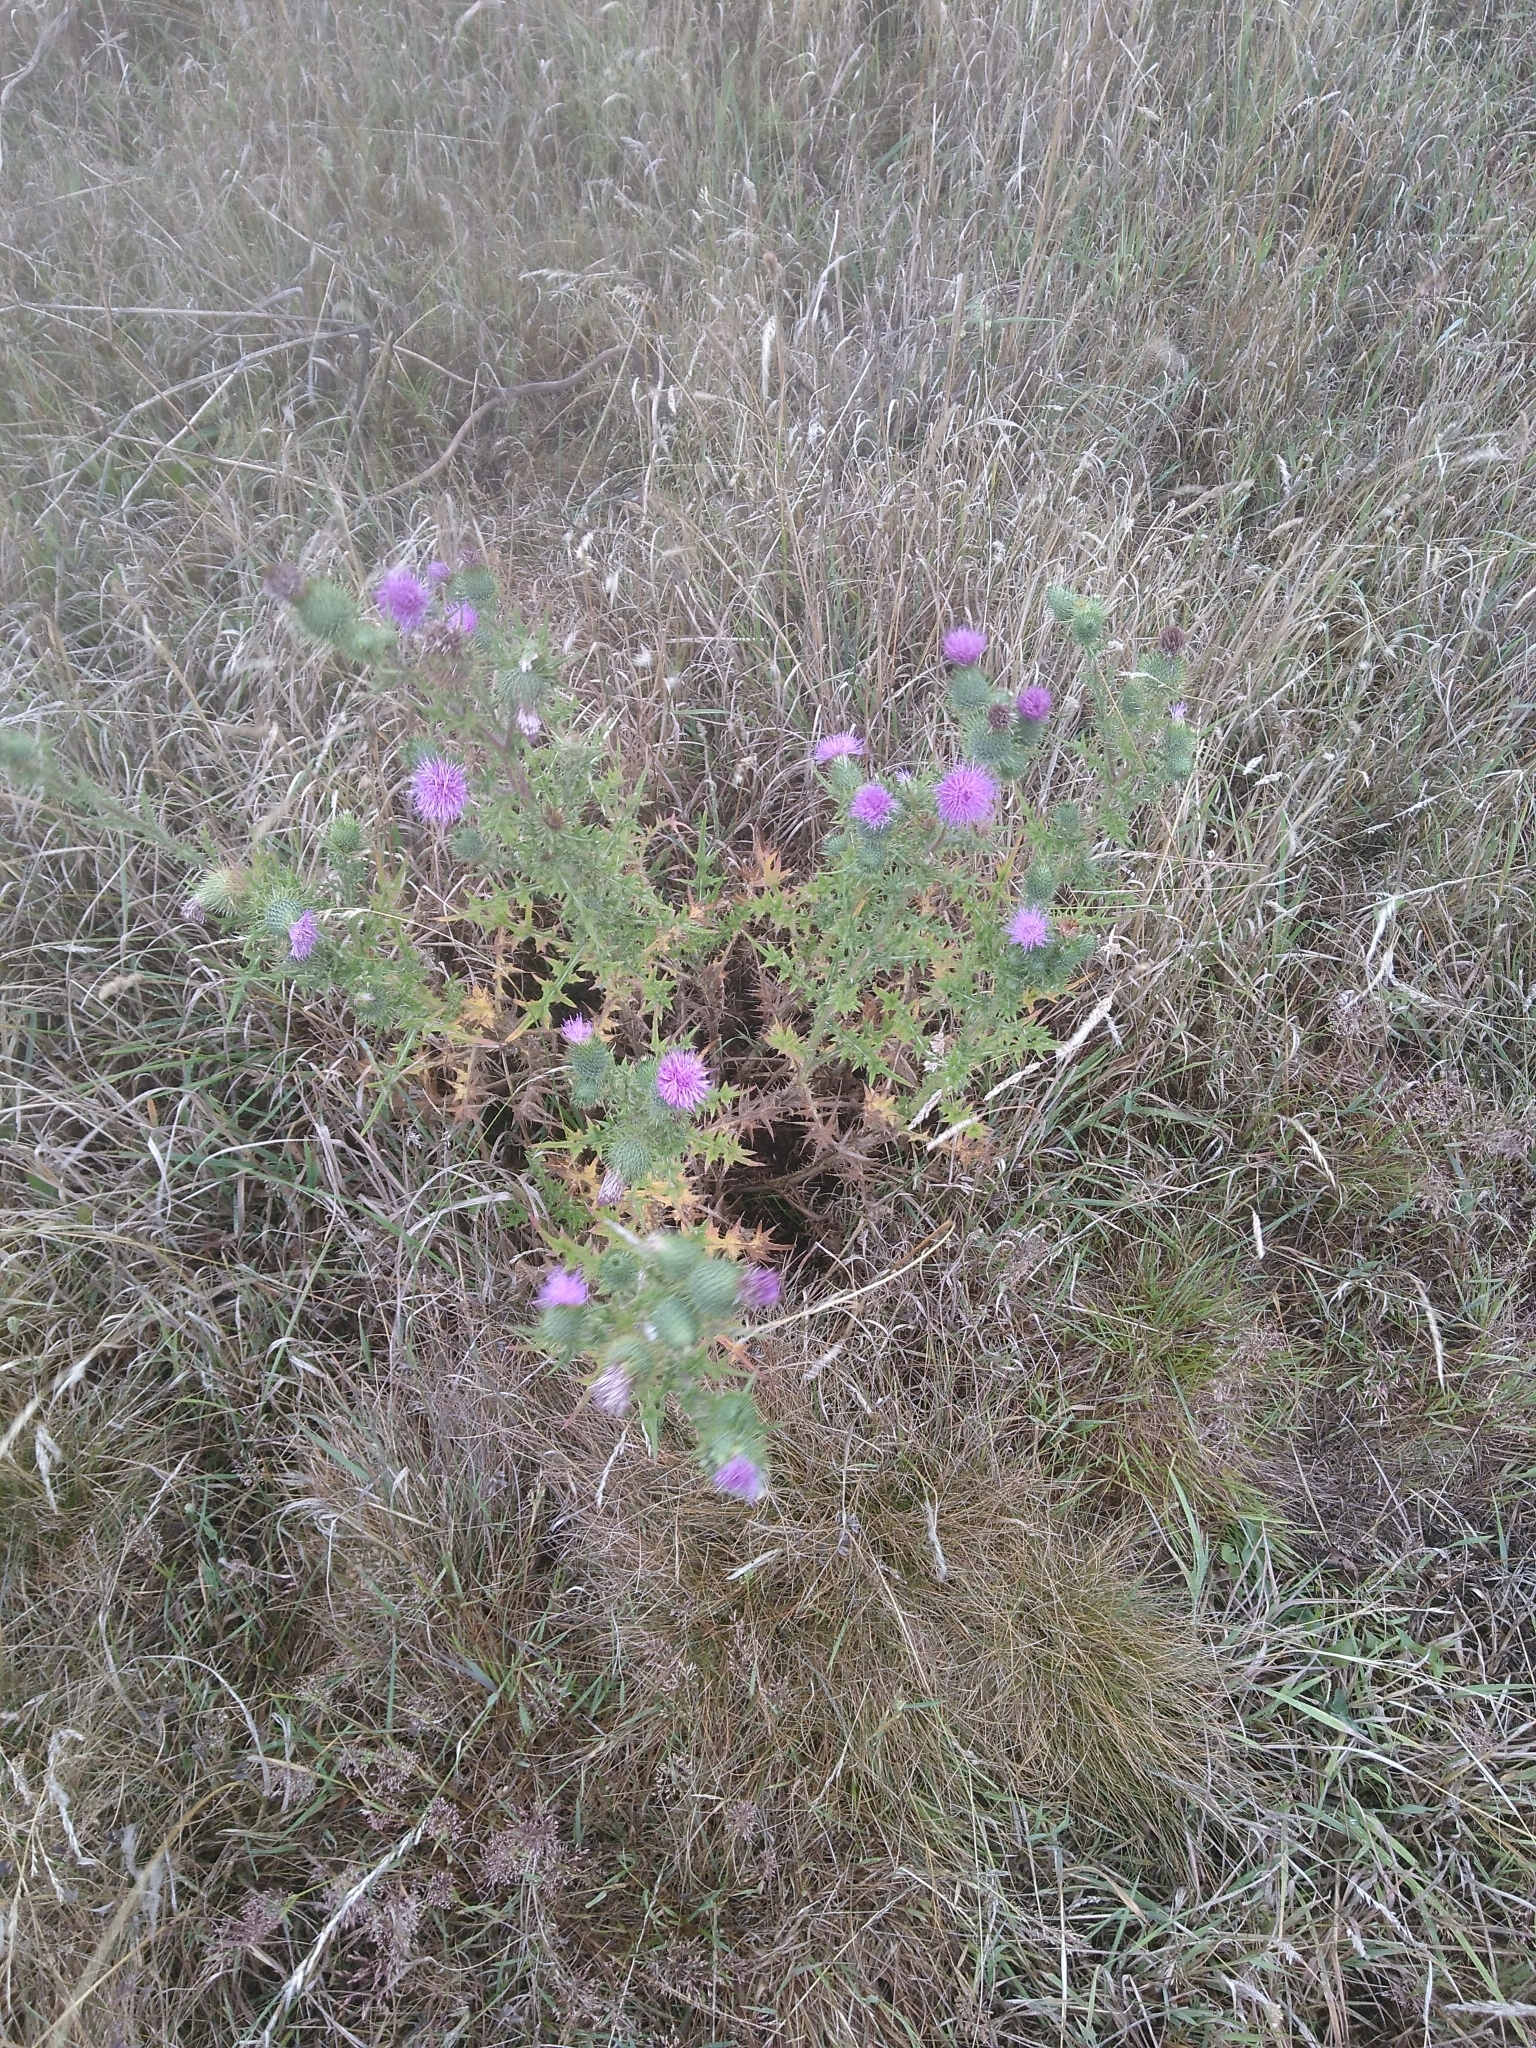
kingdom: Plantae
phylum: Tracheophyta
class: Magnoliopsida
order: Asterales
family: Asteraceae
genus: Cirsium
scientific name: Cirsium vulgare
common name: Bull thistle
